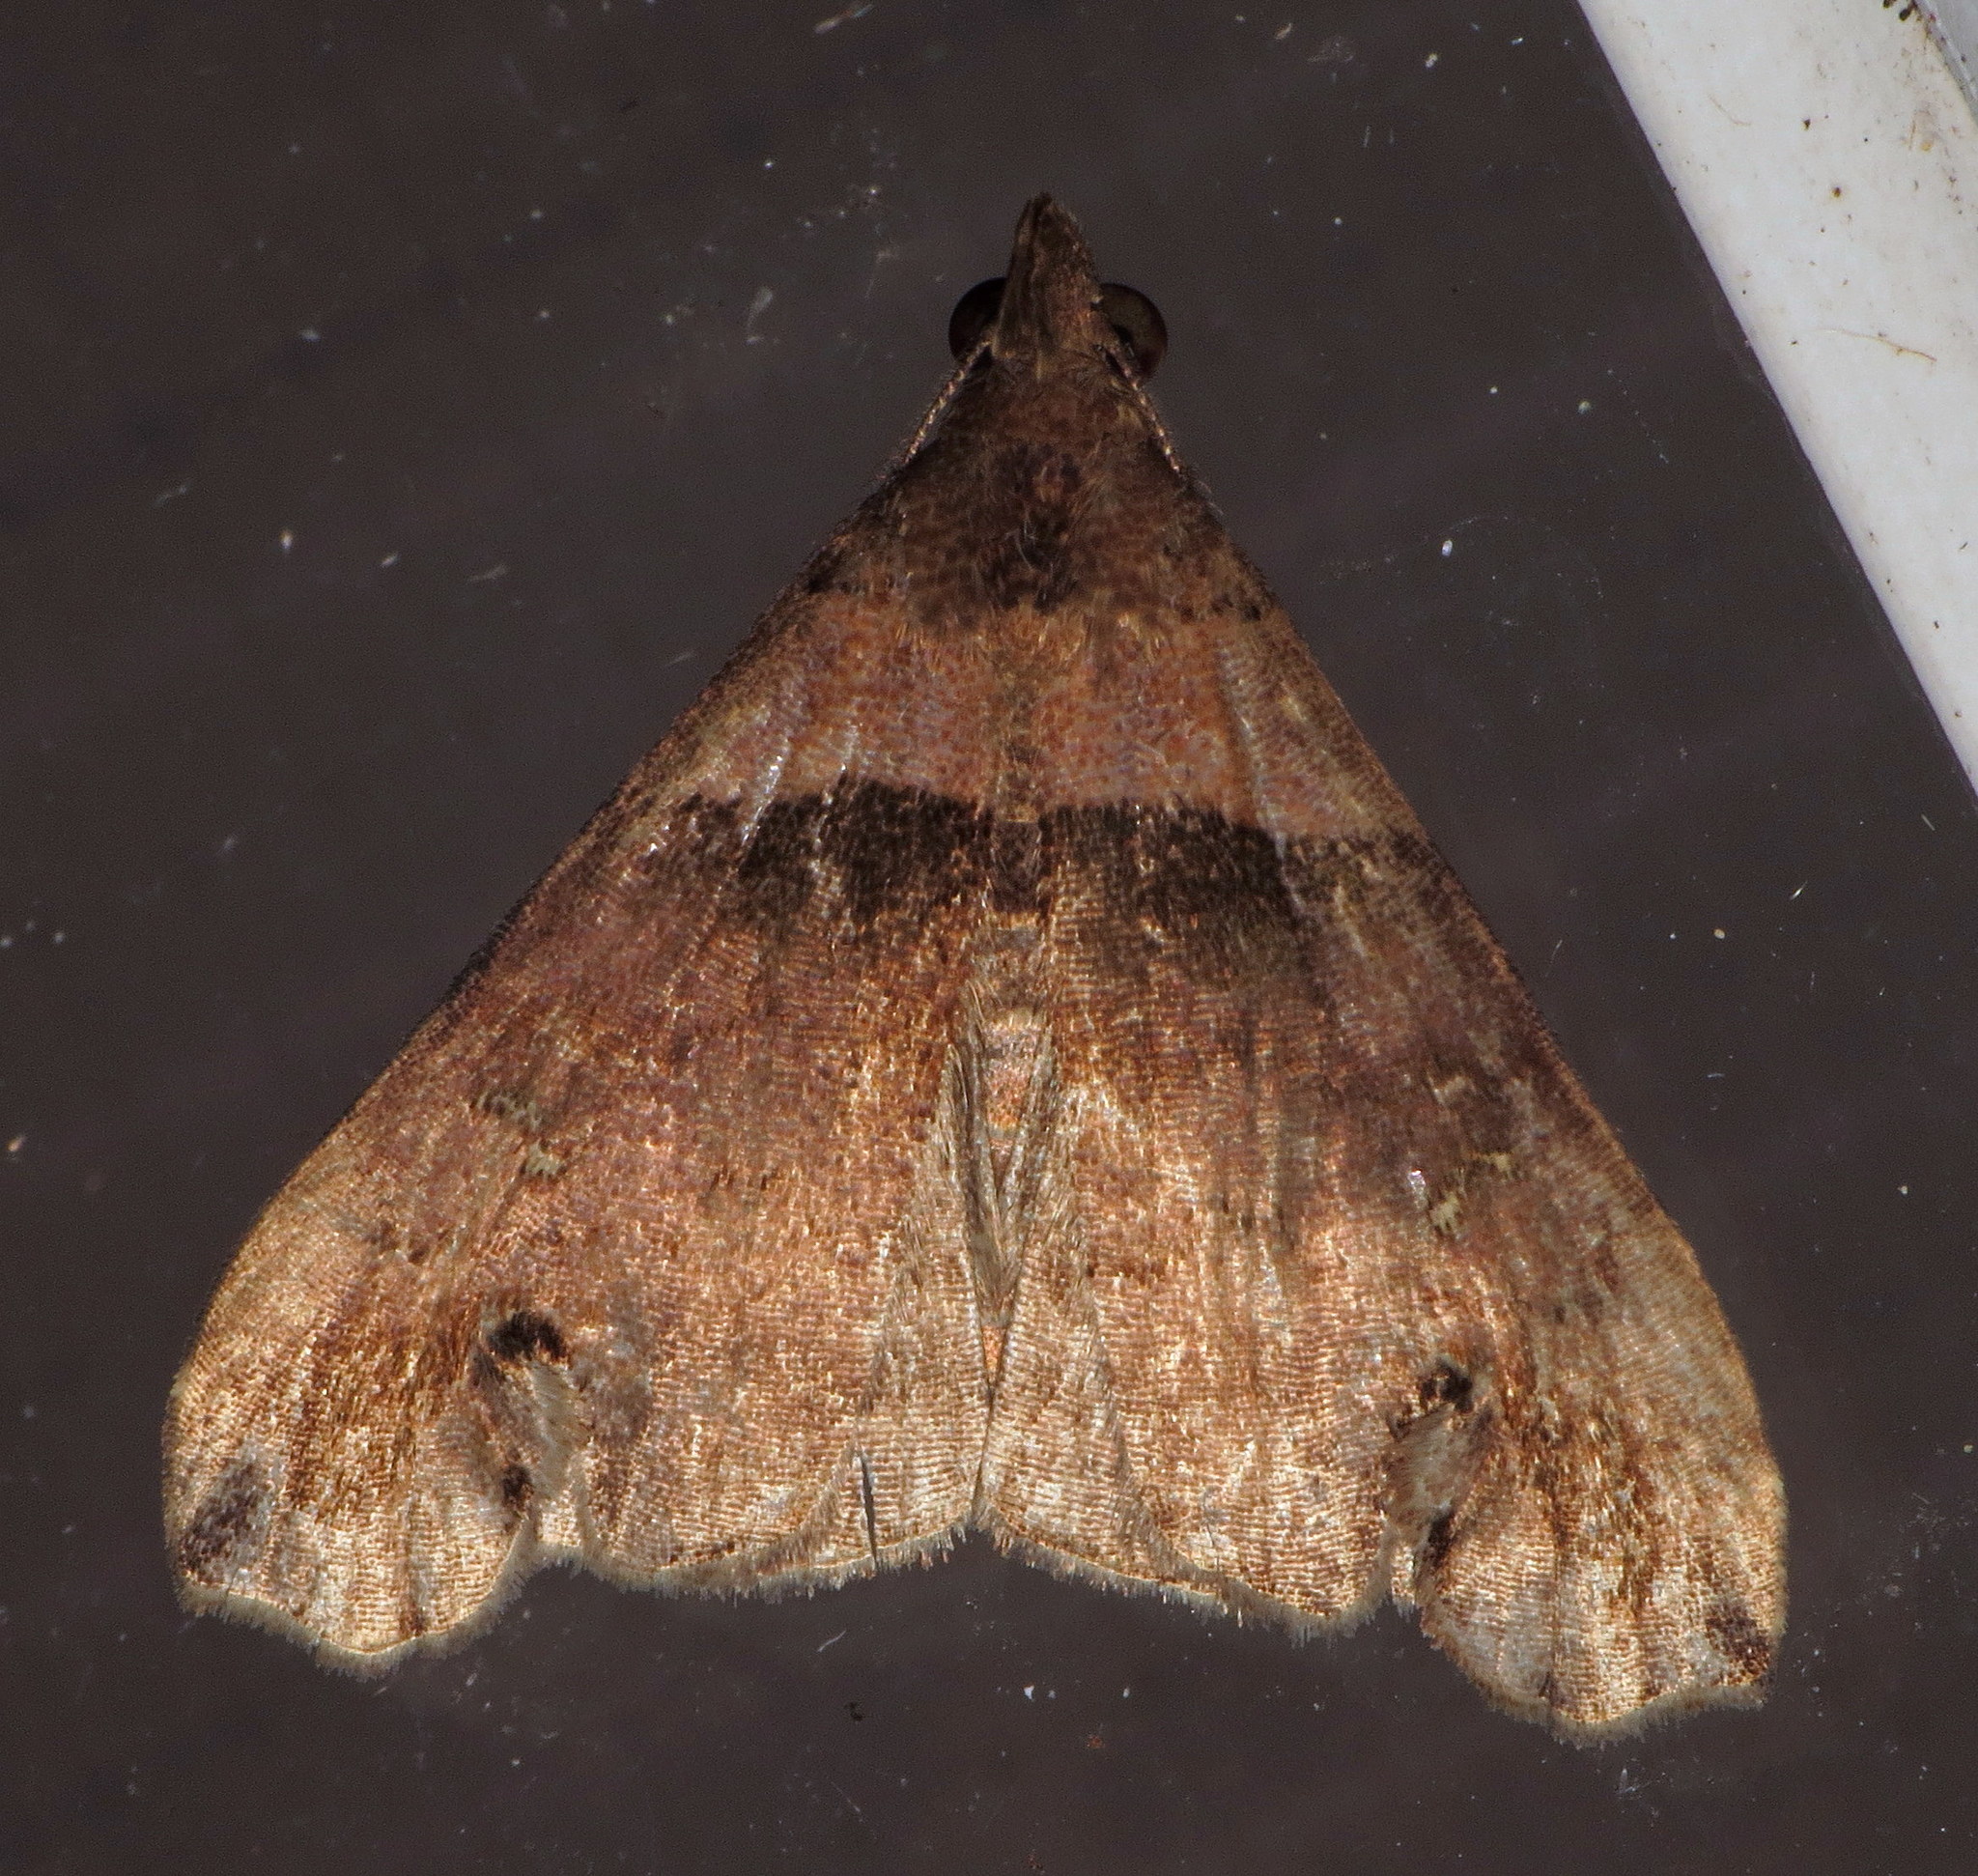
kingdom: Animalia
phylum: Arthropoda
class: Insecta
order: Lepidoptera
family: Erebidae
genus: Lascoria
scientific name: Lascoria ambigualis
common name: Ambiguous moth
